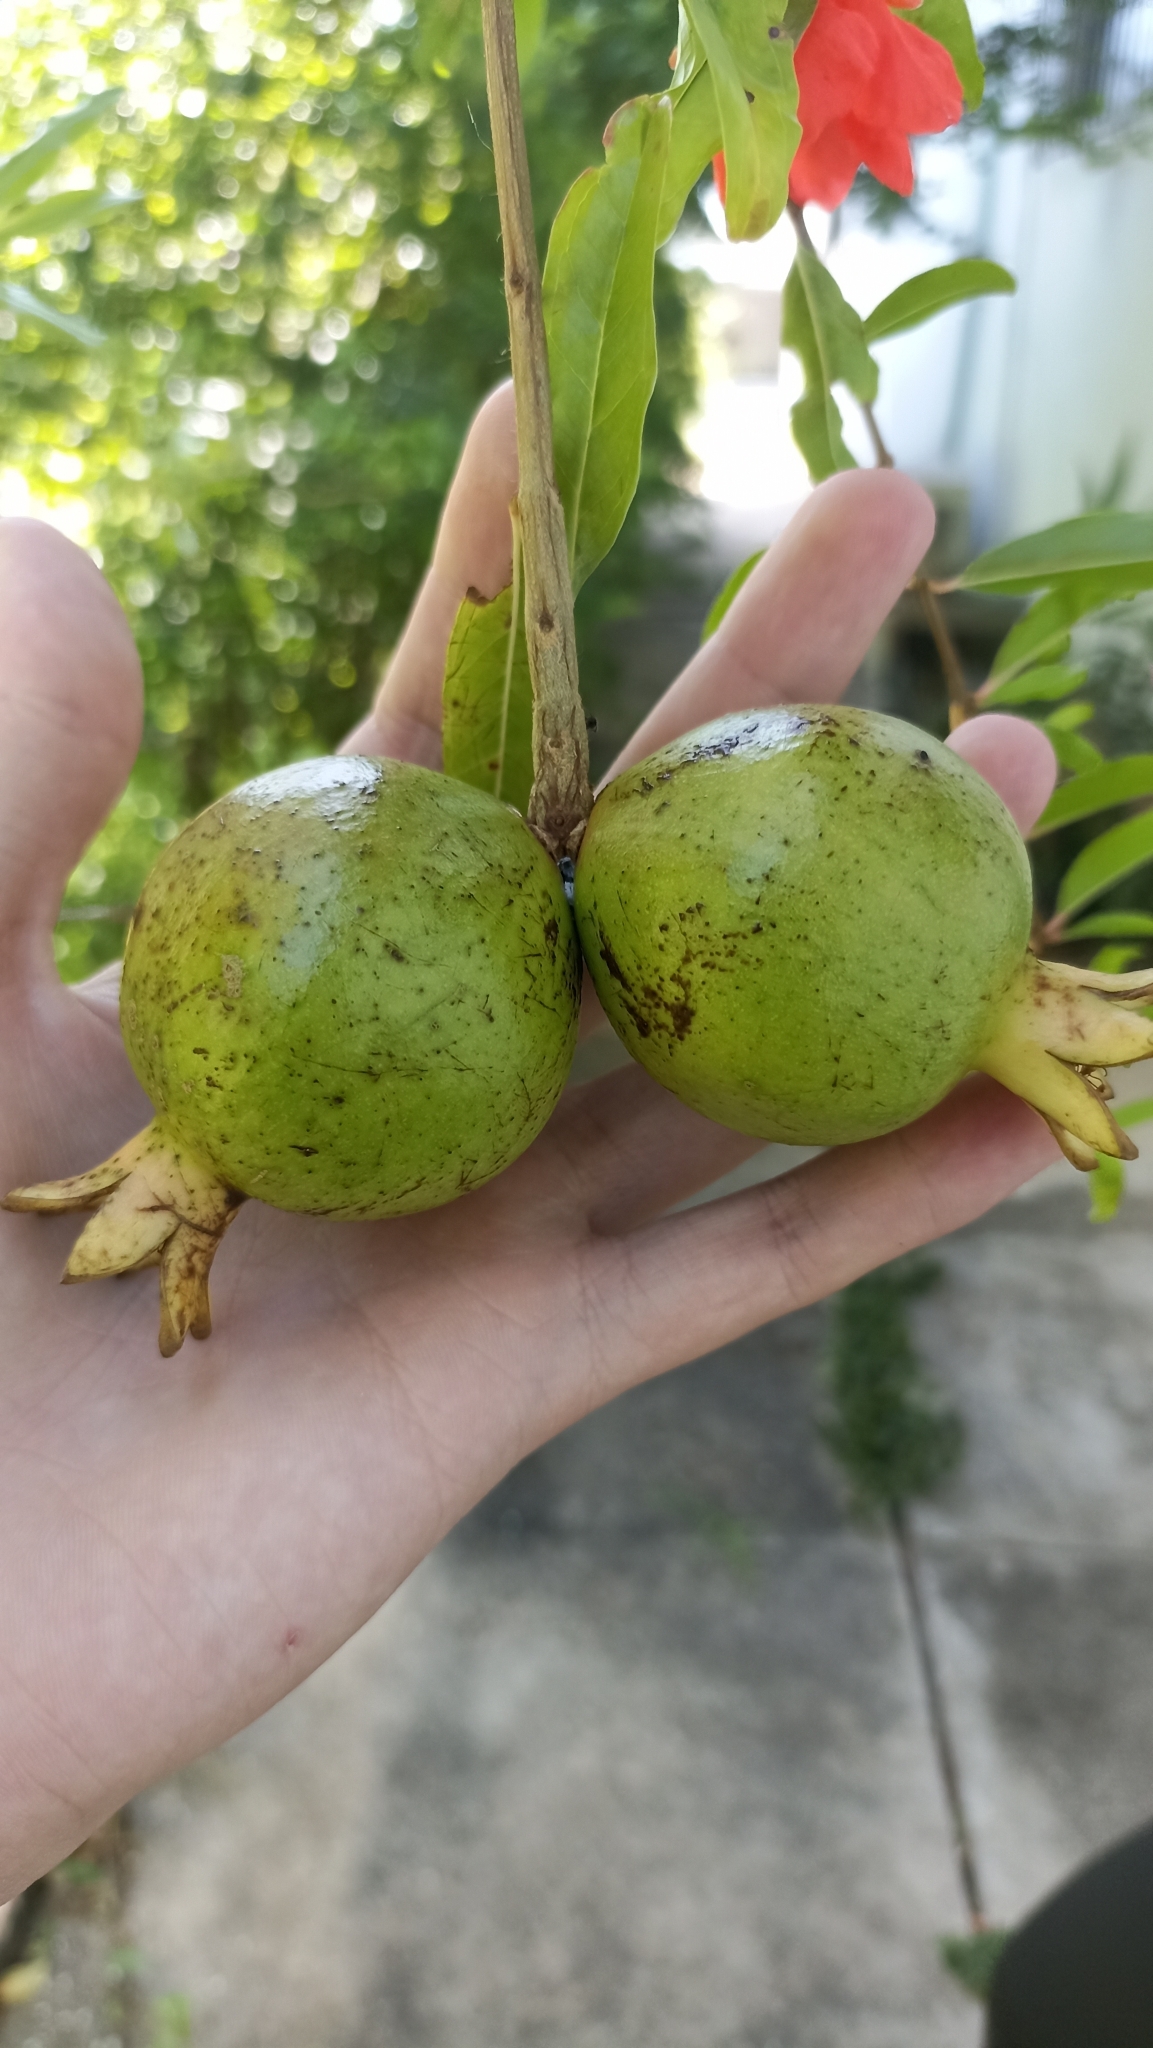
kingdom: Plantae
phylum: Tracheophyta
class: Magnoliopsida
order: Myrtales
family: Lythraceae
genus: Punica
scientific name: Punica granatum
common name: Pomegranate
